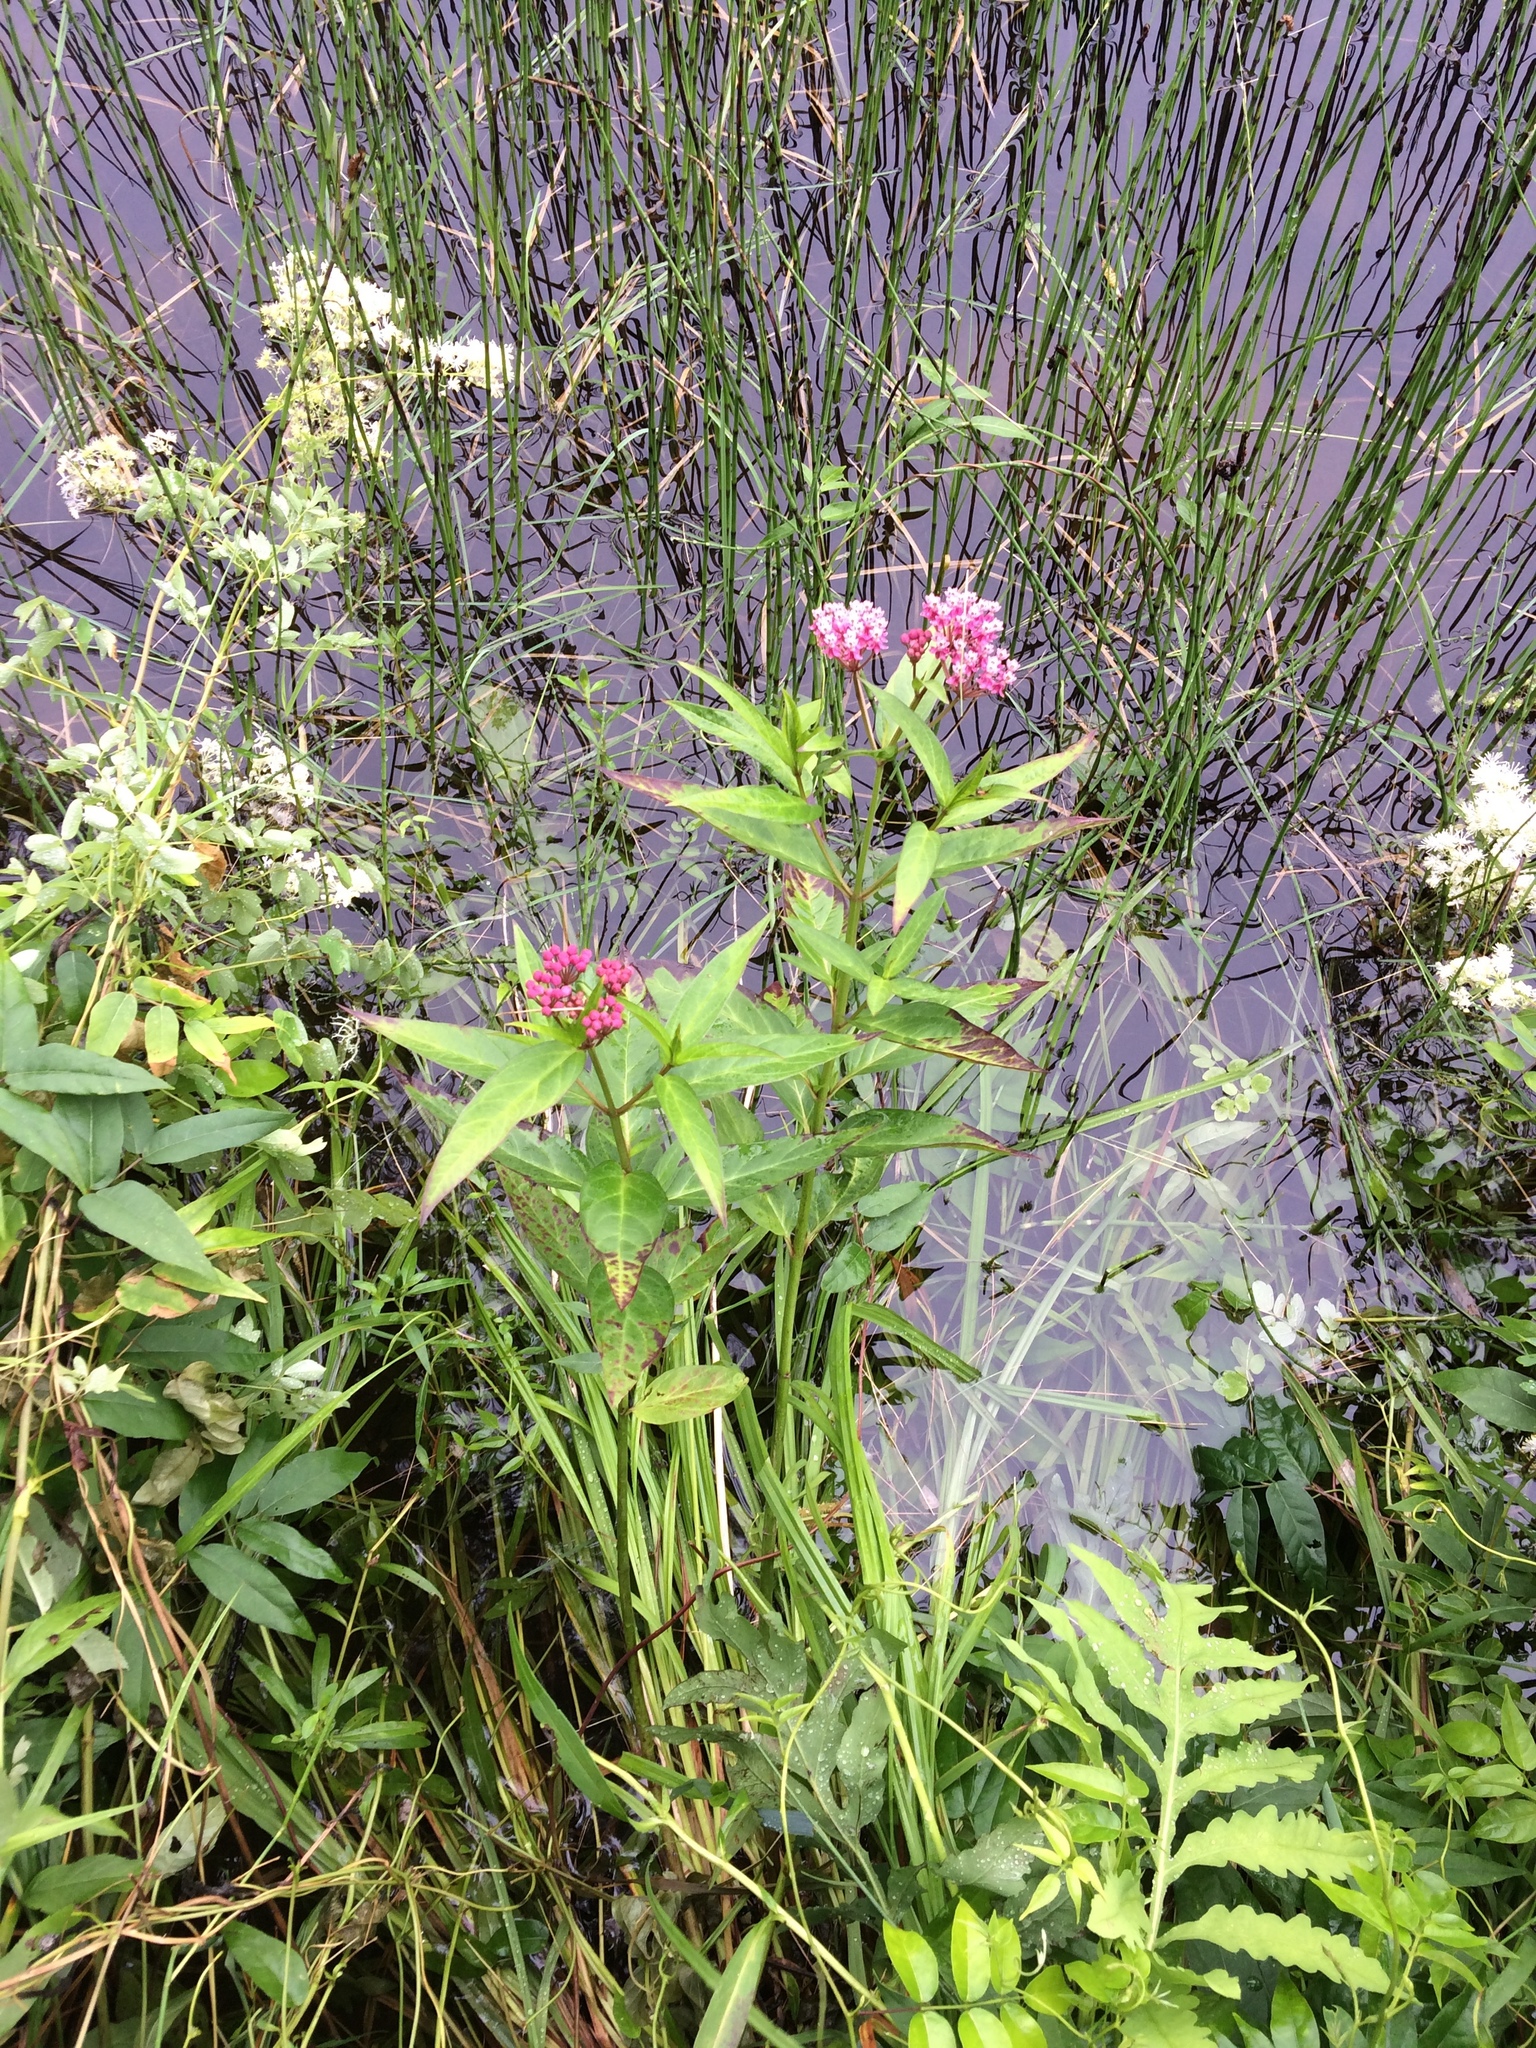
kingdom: Plantae
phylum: Tracheophyta
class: Magnoliopsida
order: Gentianales
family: Apocynaceae
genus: Asclepias
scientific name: Asclepias incarnata
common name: Swamp milkweed
